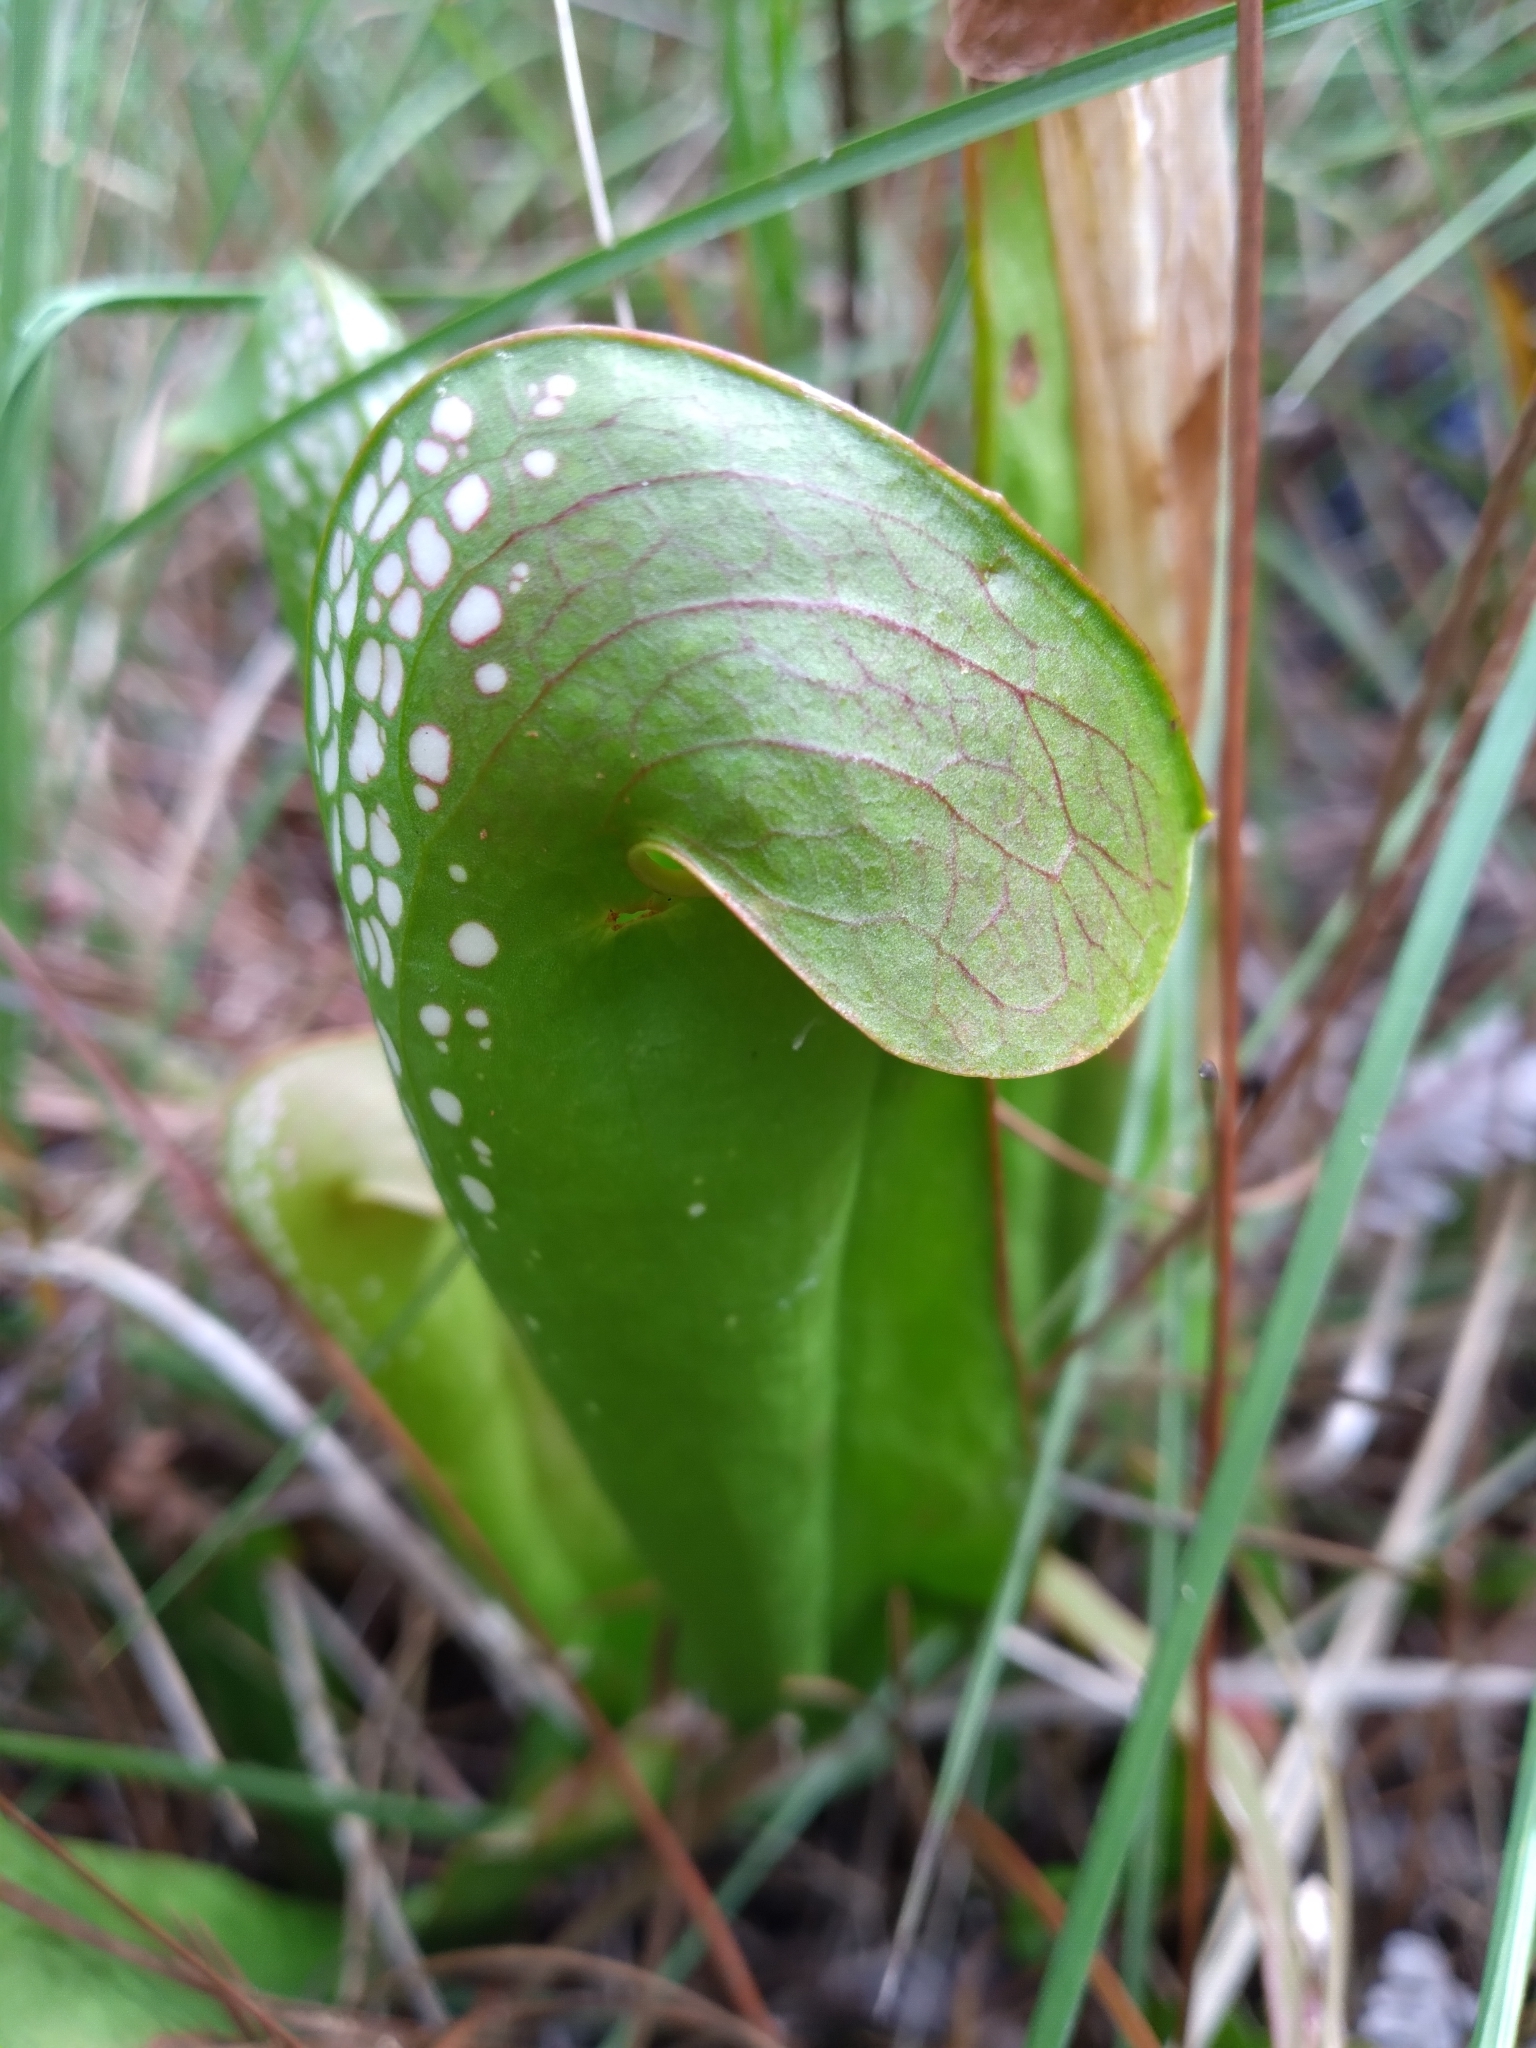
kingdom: Plantae
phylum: Tracheophyta
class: Magnoliopsida
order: Ericales
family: Sarraceniaceae
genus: Sarracenia
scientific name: Sarracenia minor
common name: Rainhat-trumpet
